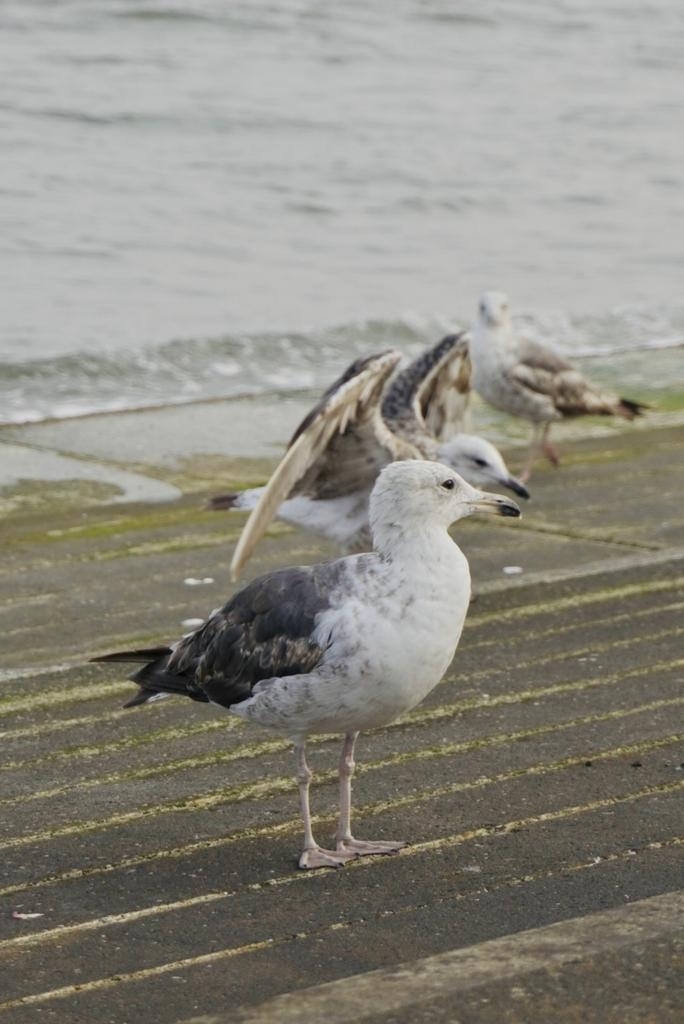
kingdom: Animalia
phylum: Chordata
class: Aves
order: Charadriiformes
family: Laridae
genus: Larus
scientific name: Larus fuscus
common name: Lesser black-backed gull
